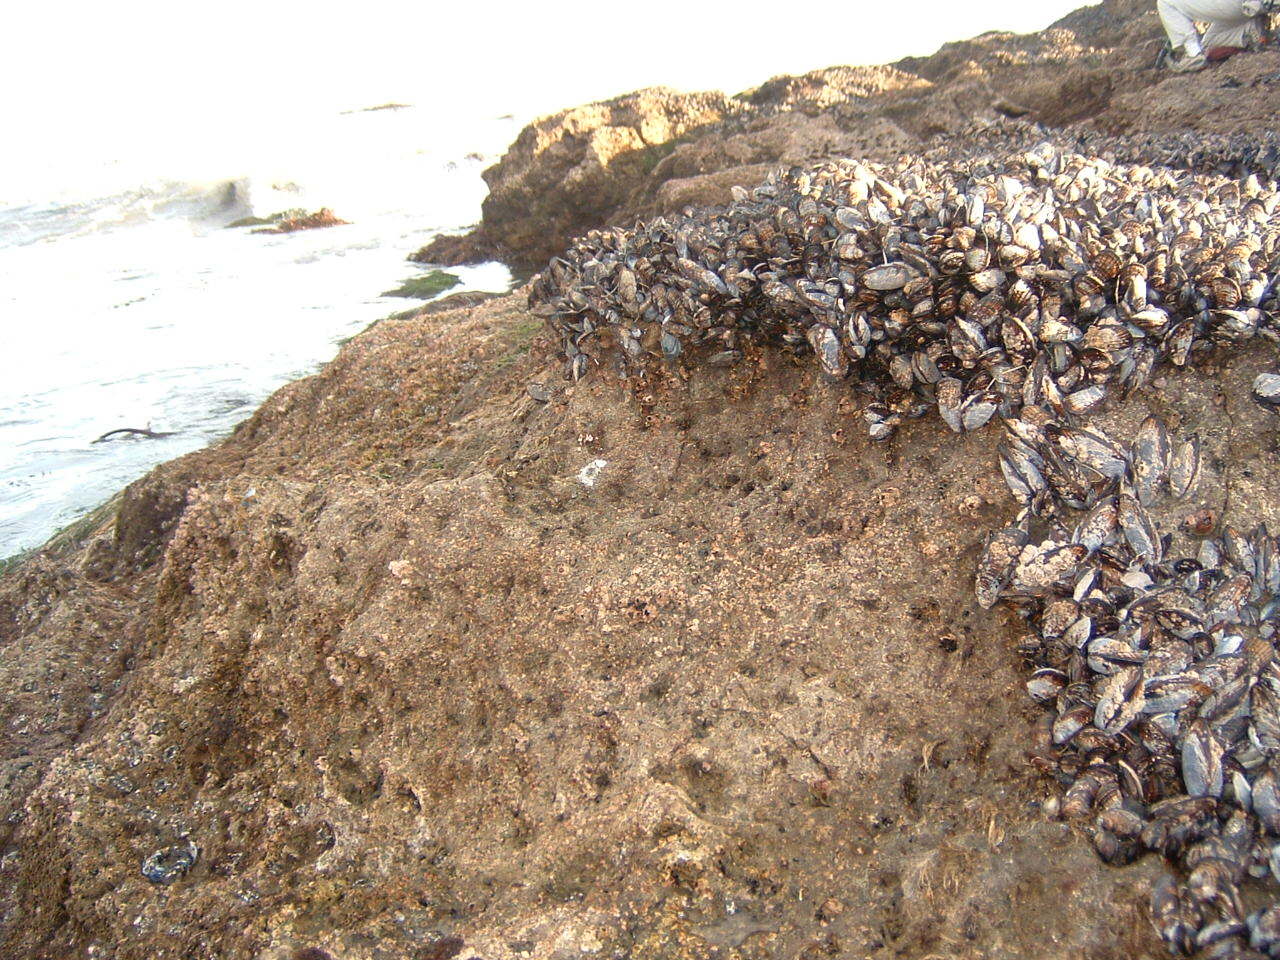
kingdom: Animalia
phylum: Mollusca
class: Bivalvia
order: Mytilida
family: Mytilidae
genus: Mytilus
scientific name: Mytilus californianus
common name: California mussel
